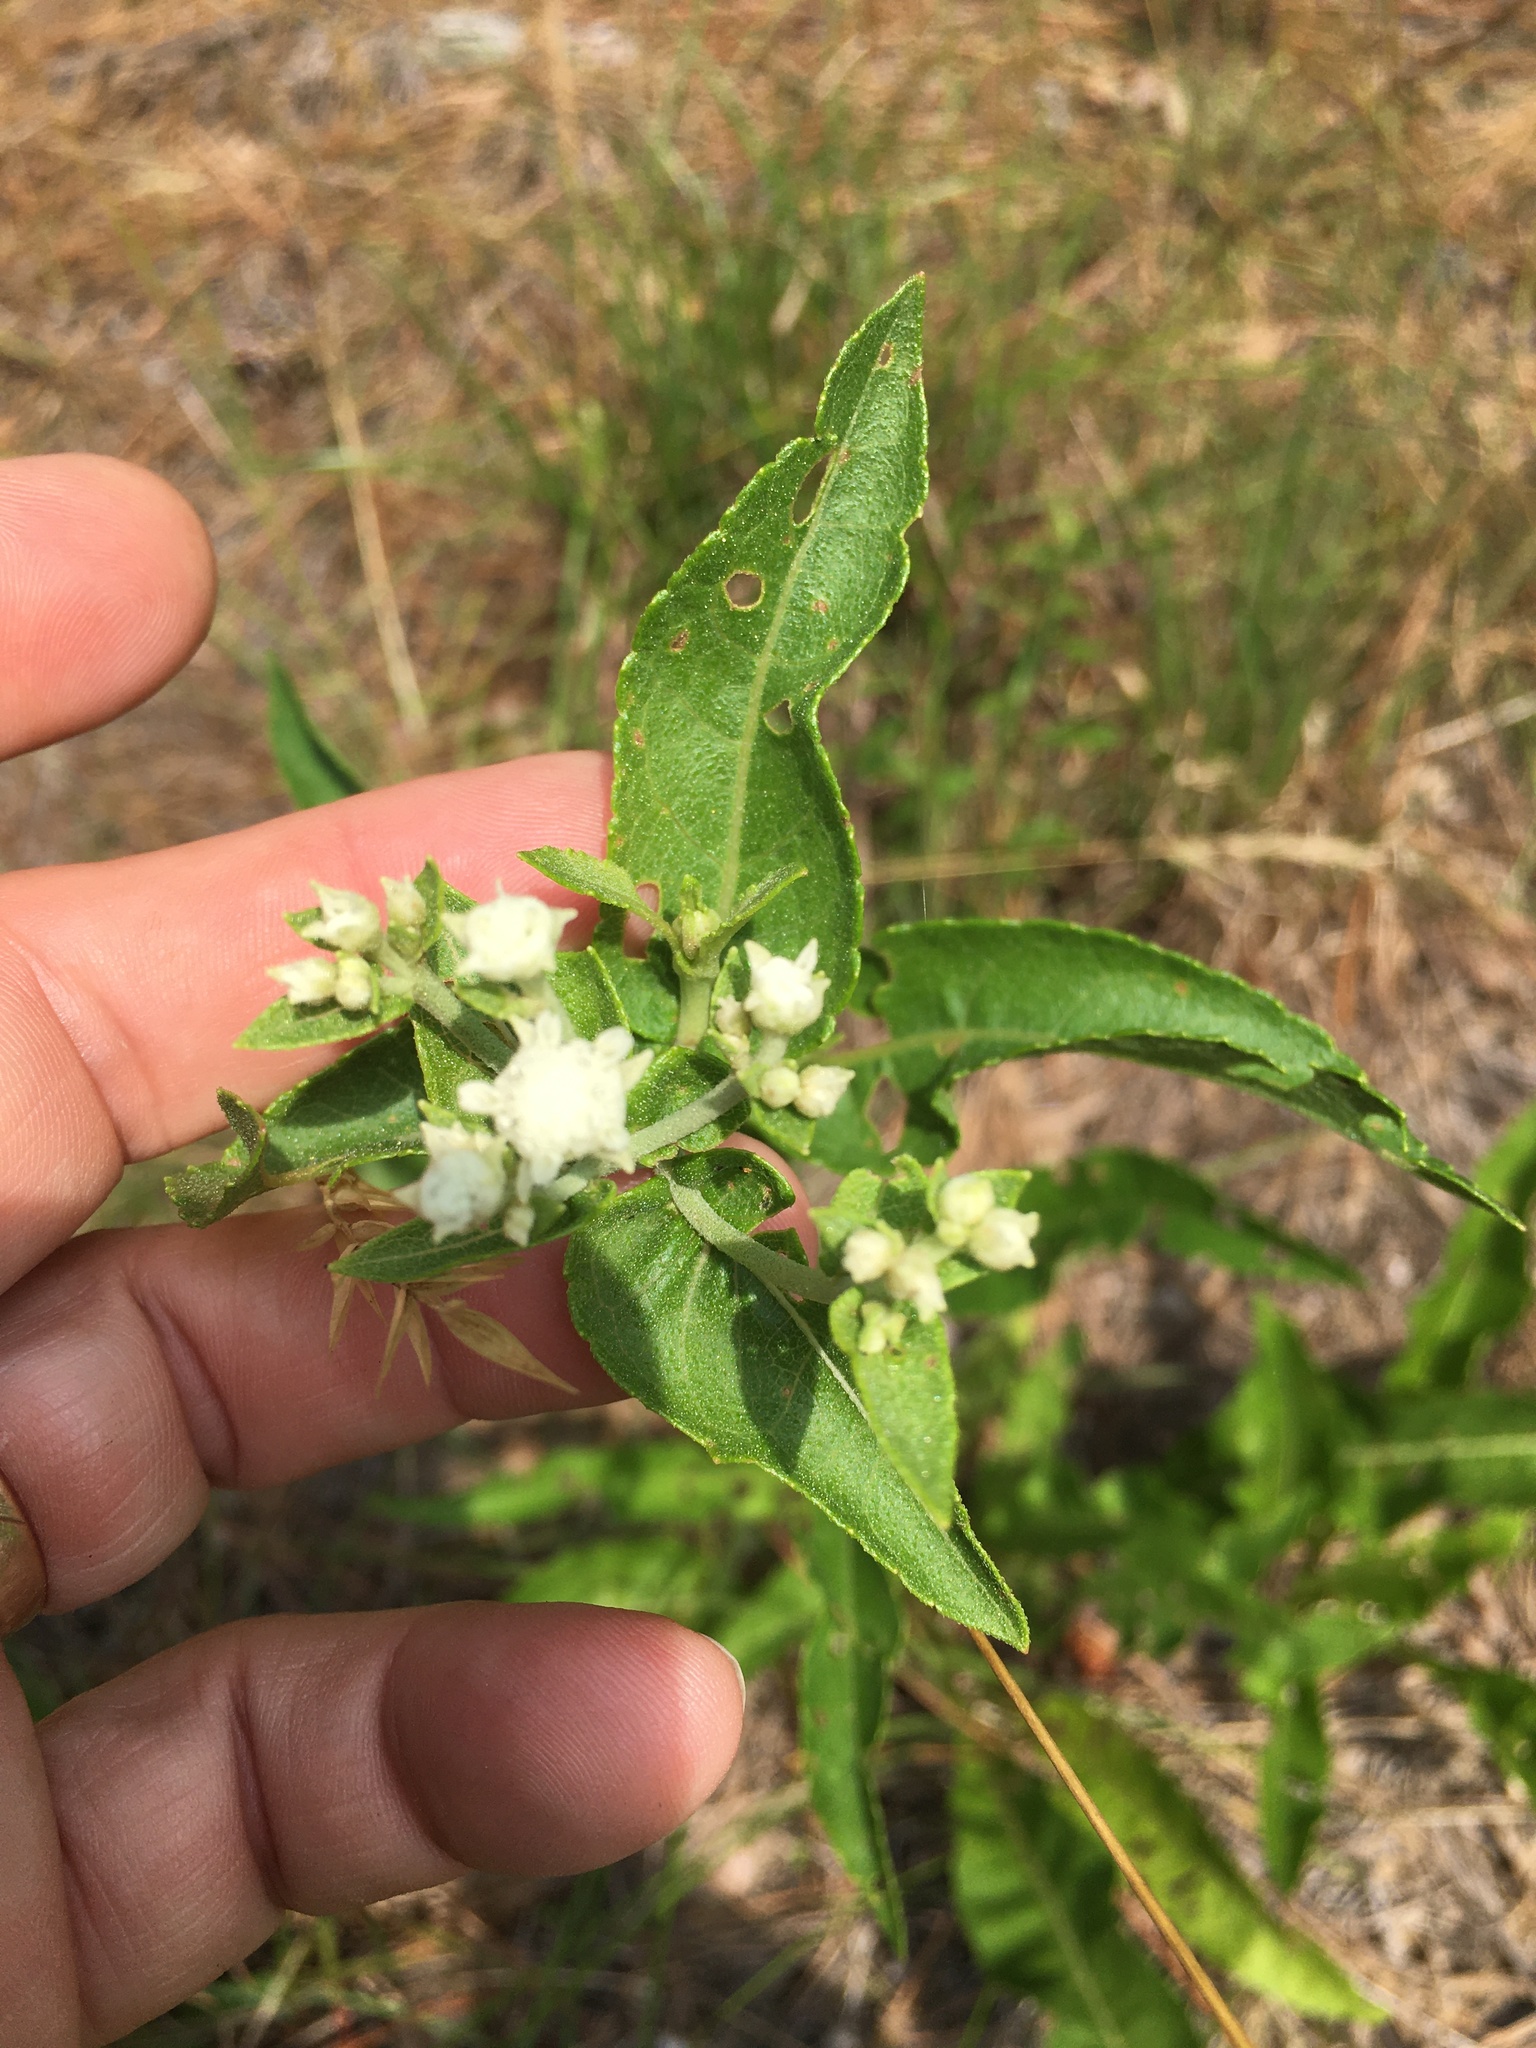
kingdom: Plantae
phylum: Tracheophyta
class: Magnoliopsida
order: Asterales
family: Asteraceae
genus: Parthenium
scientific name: Parthenium integrifolium
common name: American feverfew
